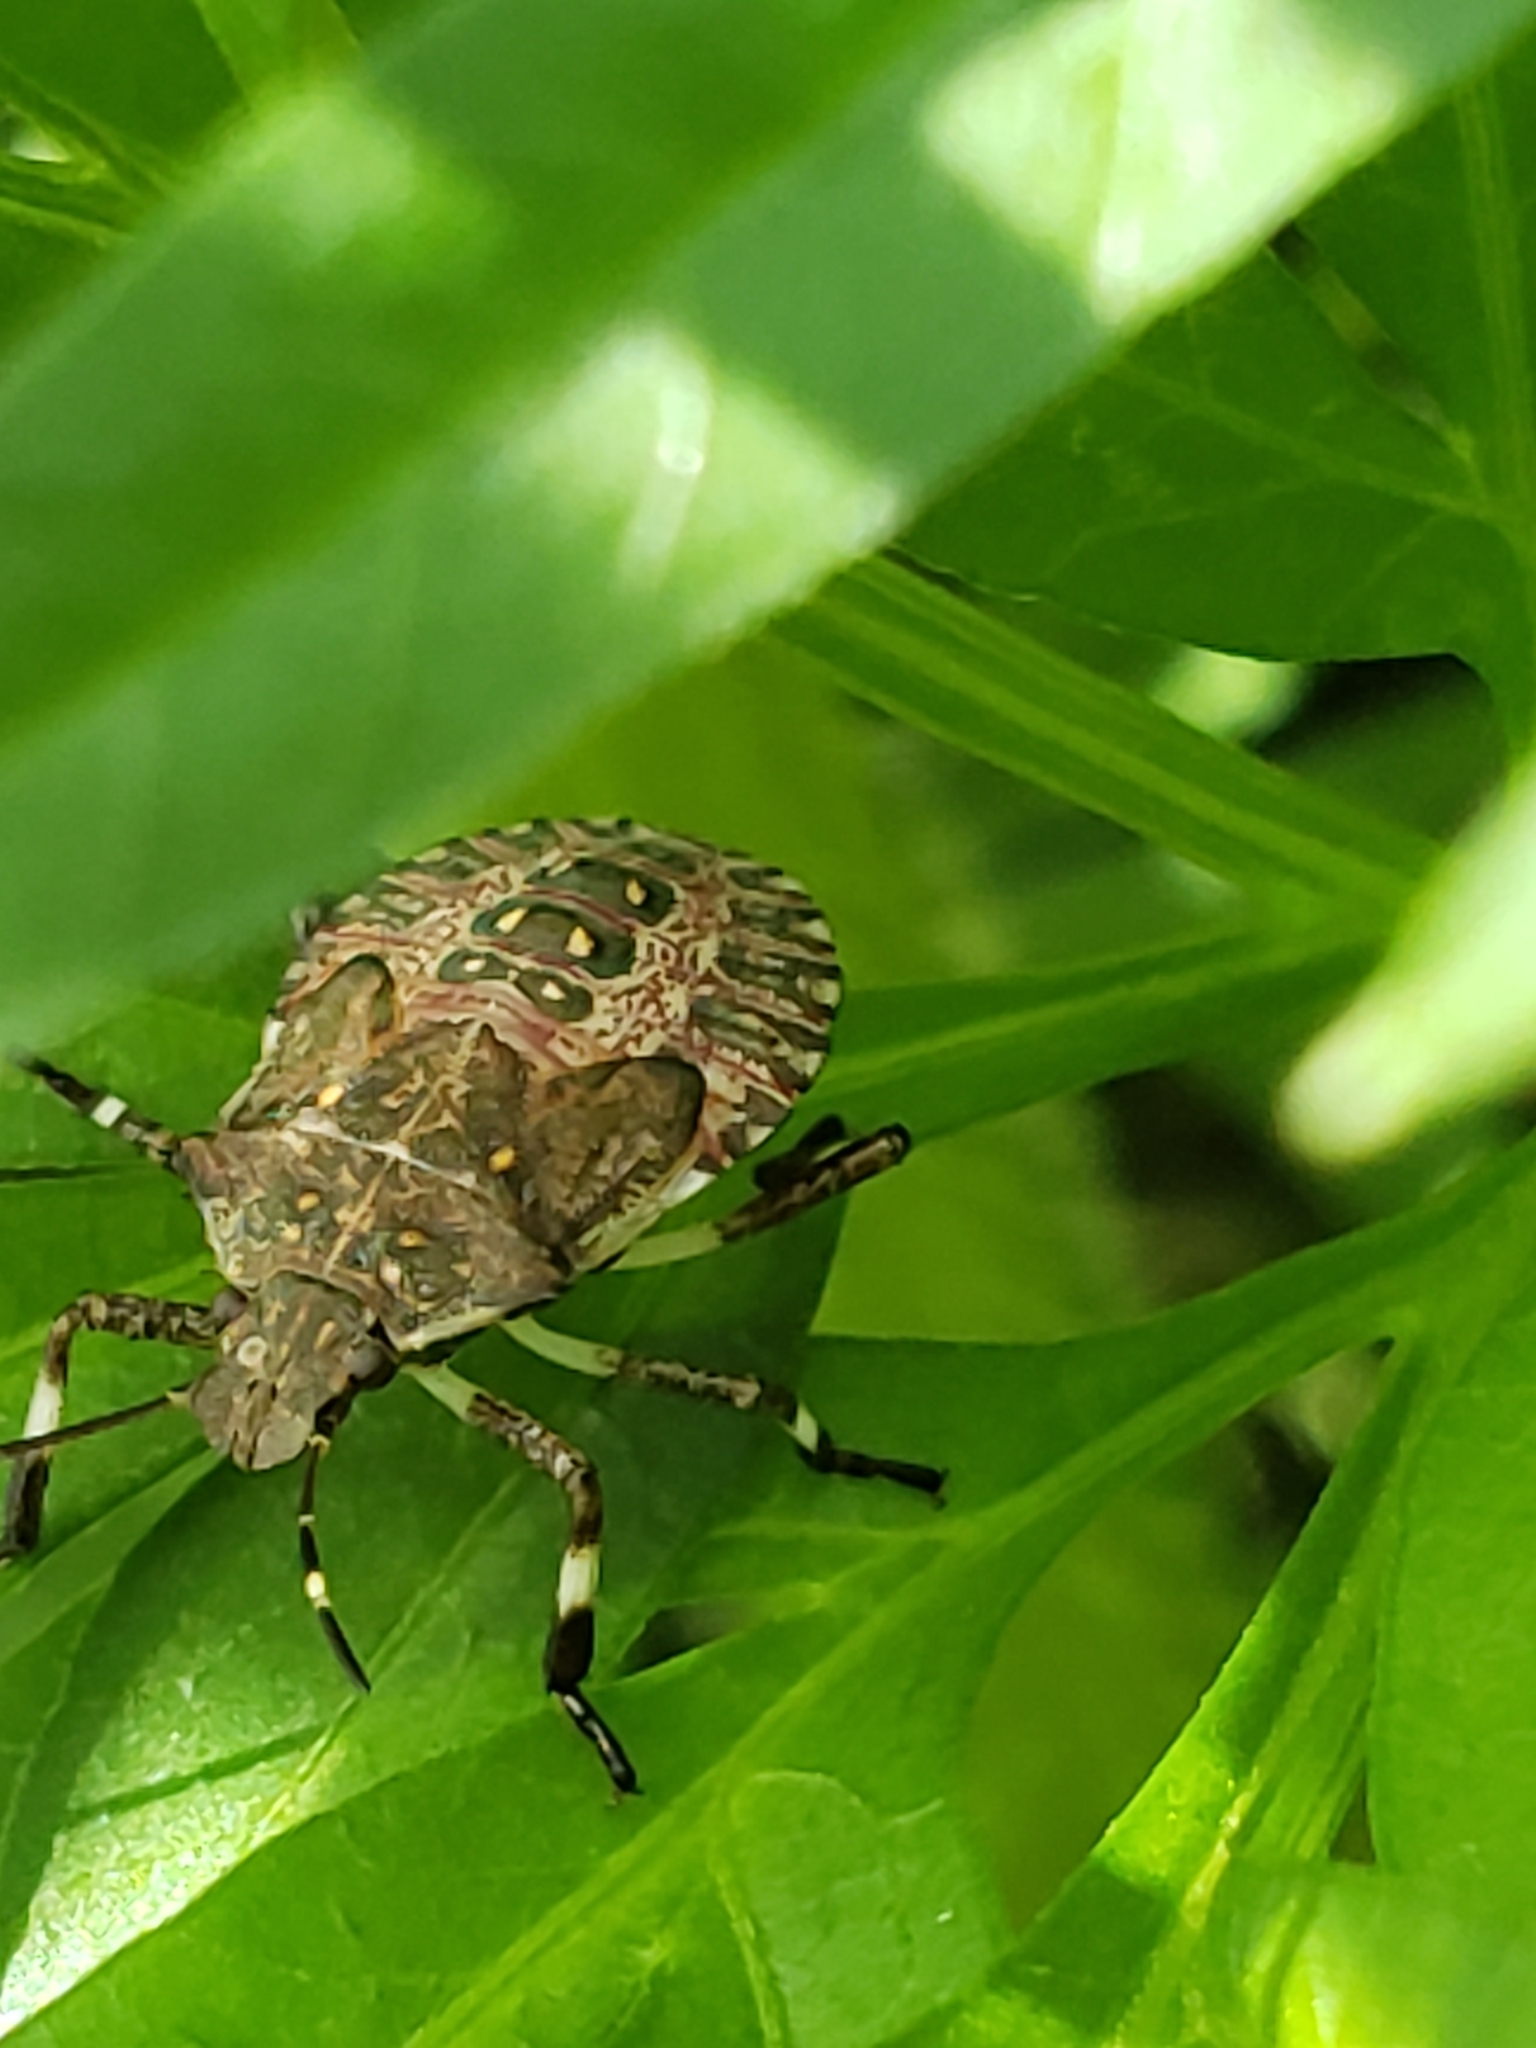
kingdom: Animalia
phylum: Arthropoda
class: Insecta
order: Hemiptera
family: Pentatomidae
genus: Halyomorpha
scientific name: Halyomorpha halys
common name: Brown marmorated stink bug
